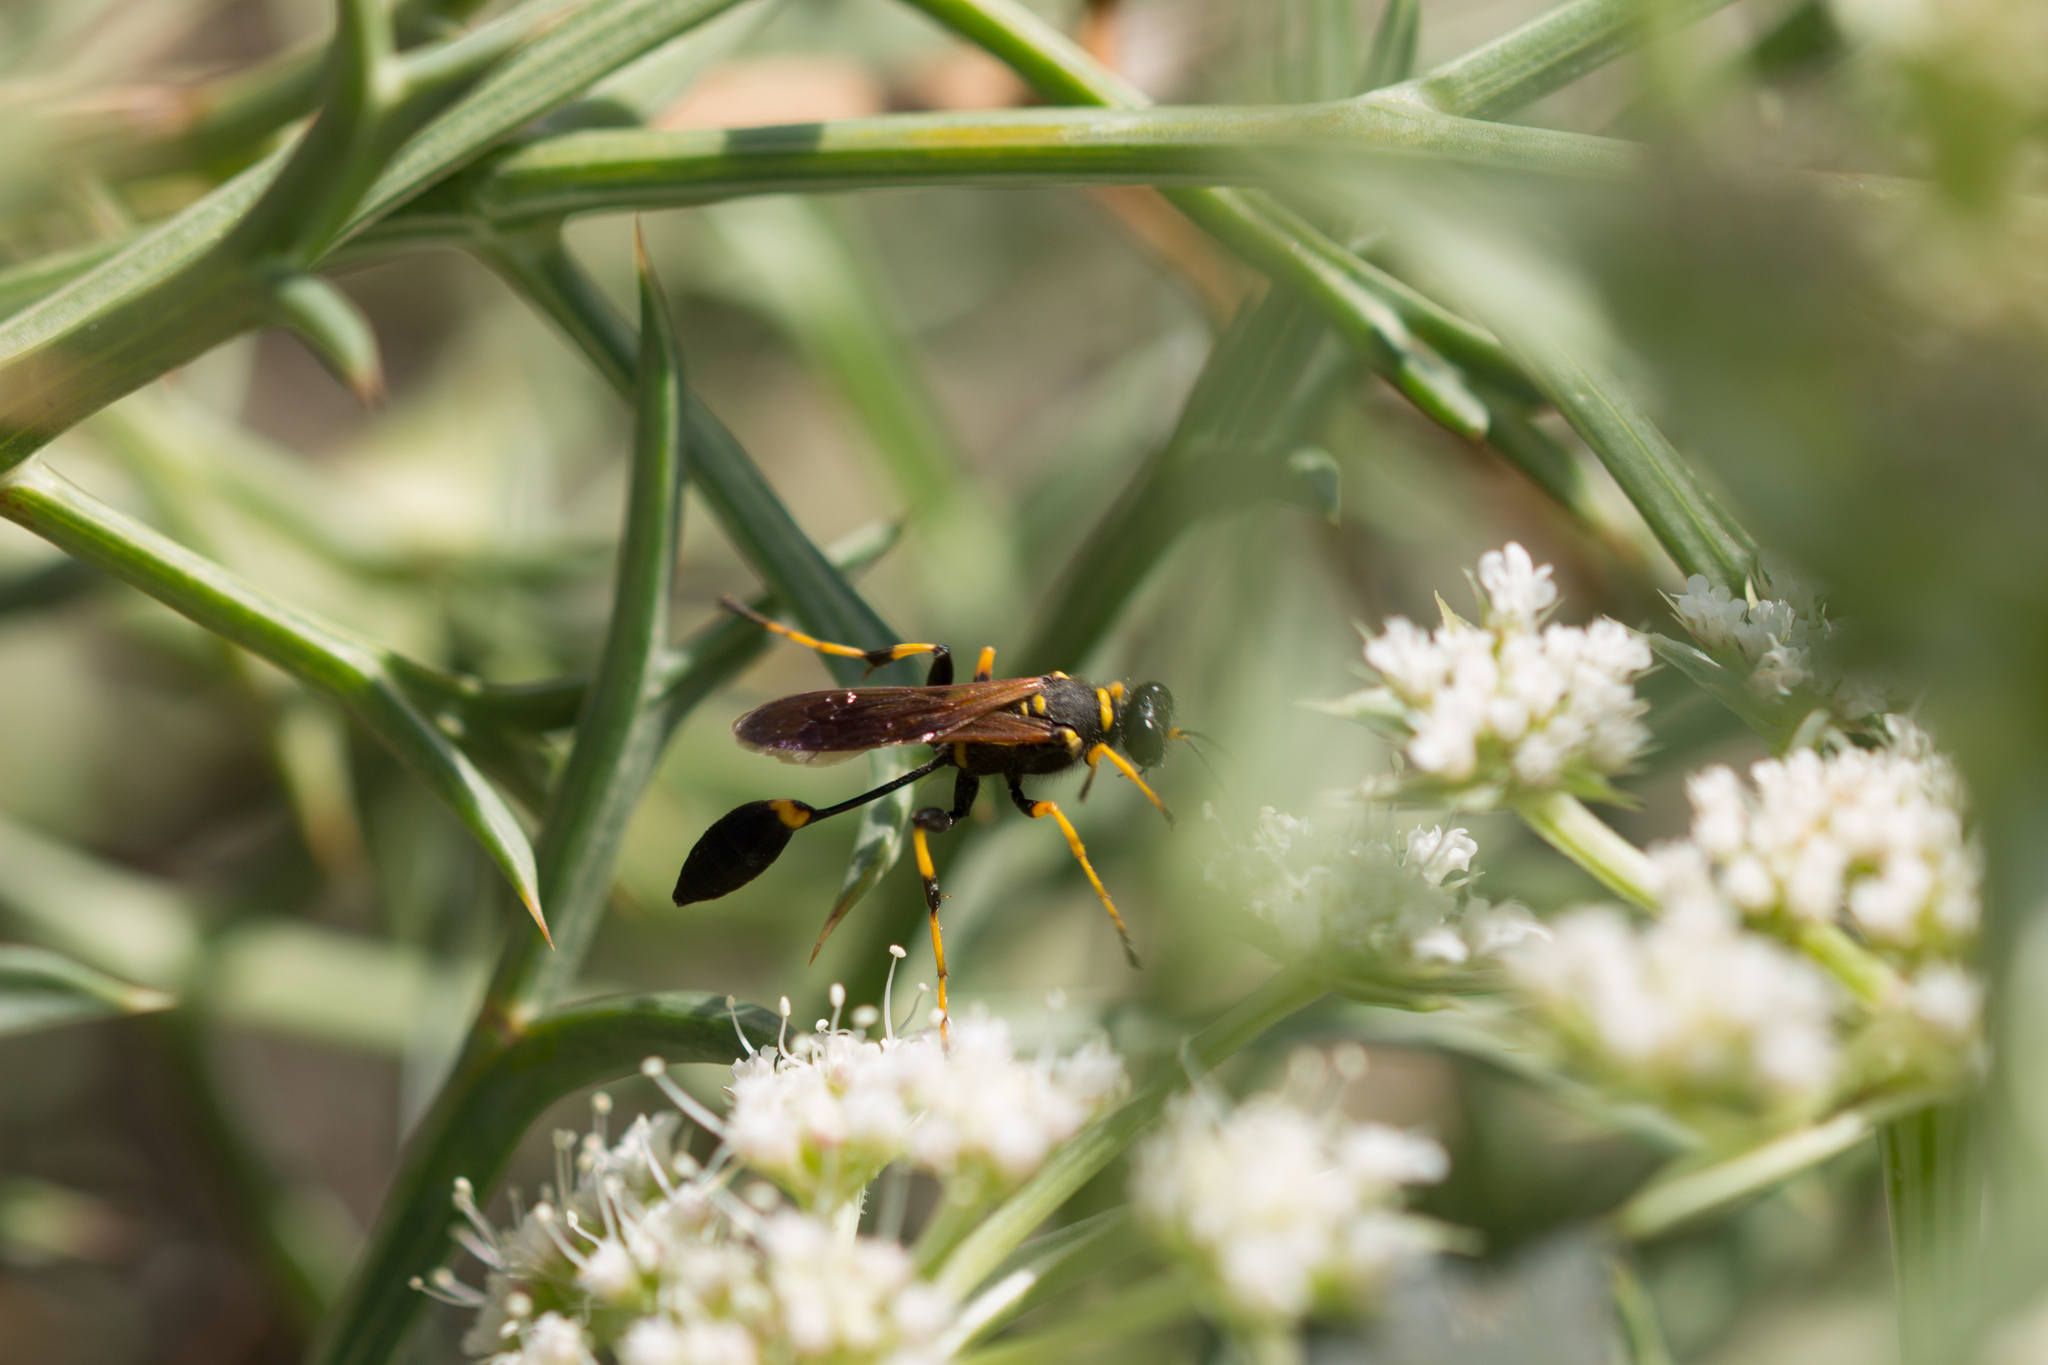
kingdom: Animalia
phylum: Arthropoda
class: Insecta
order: Hymenoptera
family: Sphecidae
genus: Sceliphron
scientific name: Sceliphron caementarium
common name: Mud dauber
